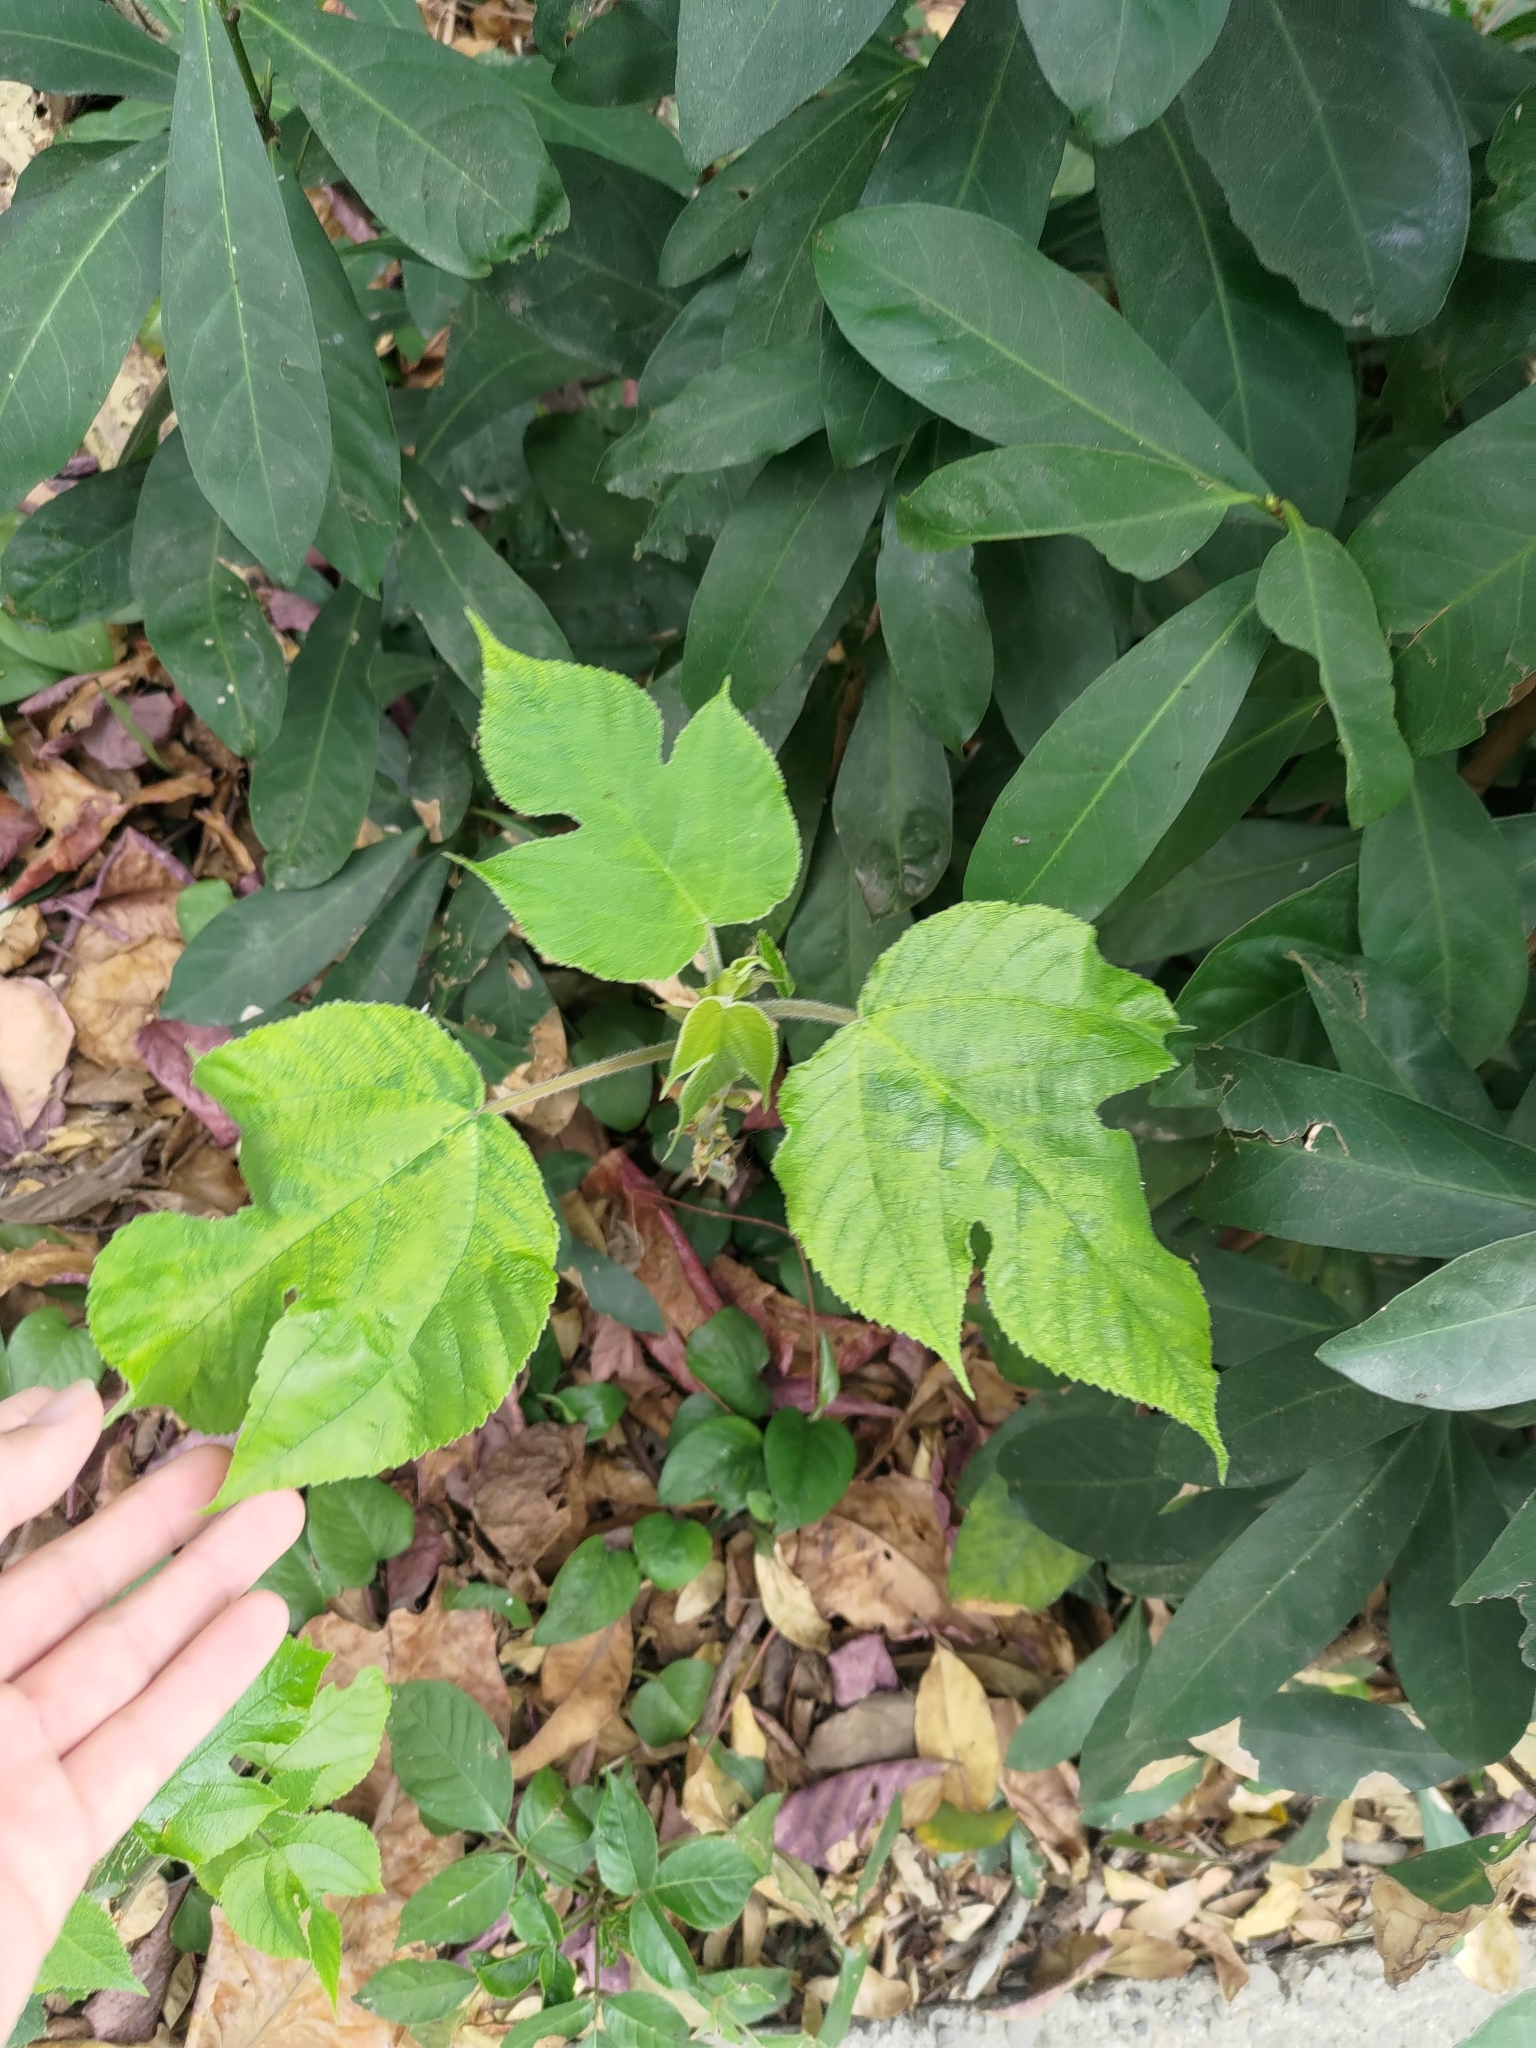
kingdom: Plantae
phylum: Tracheophyta
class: Magnoliopsida
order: Rosales
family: Moraceae
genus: Broussonetia
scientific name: Broussonetia papyrifera
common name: Paper mulberry
